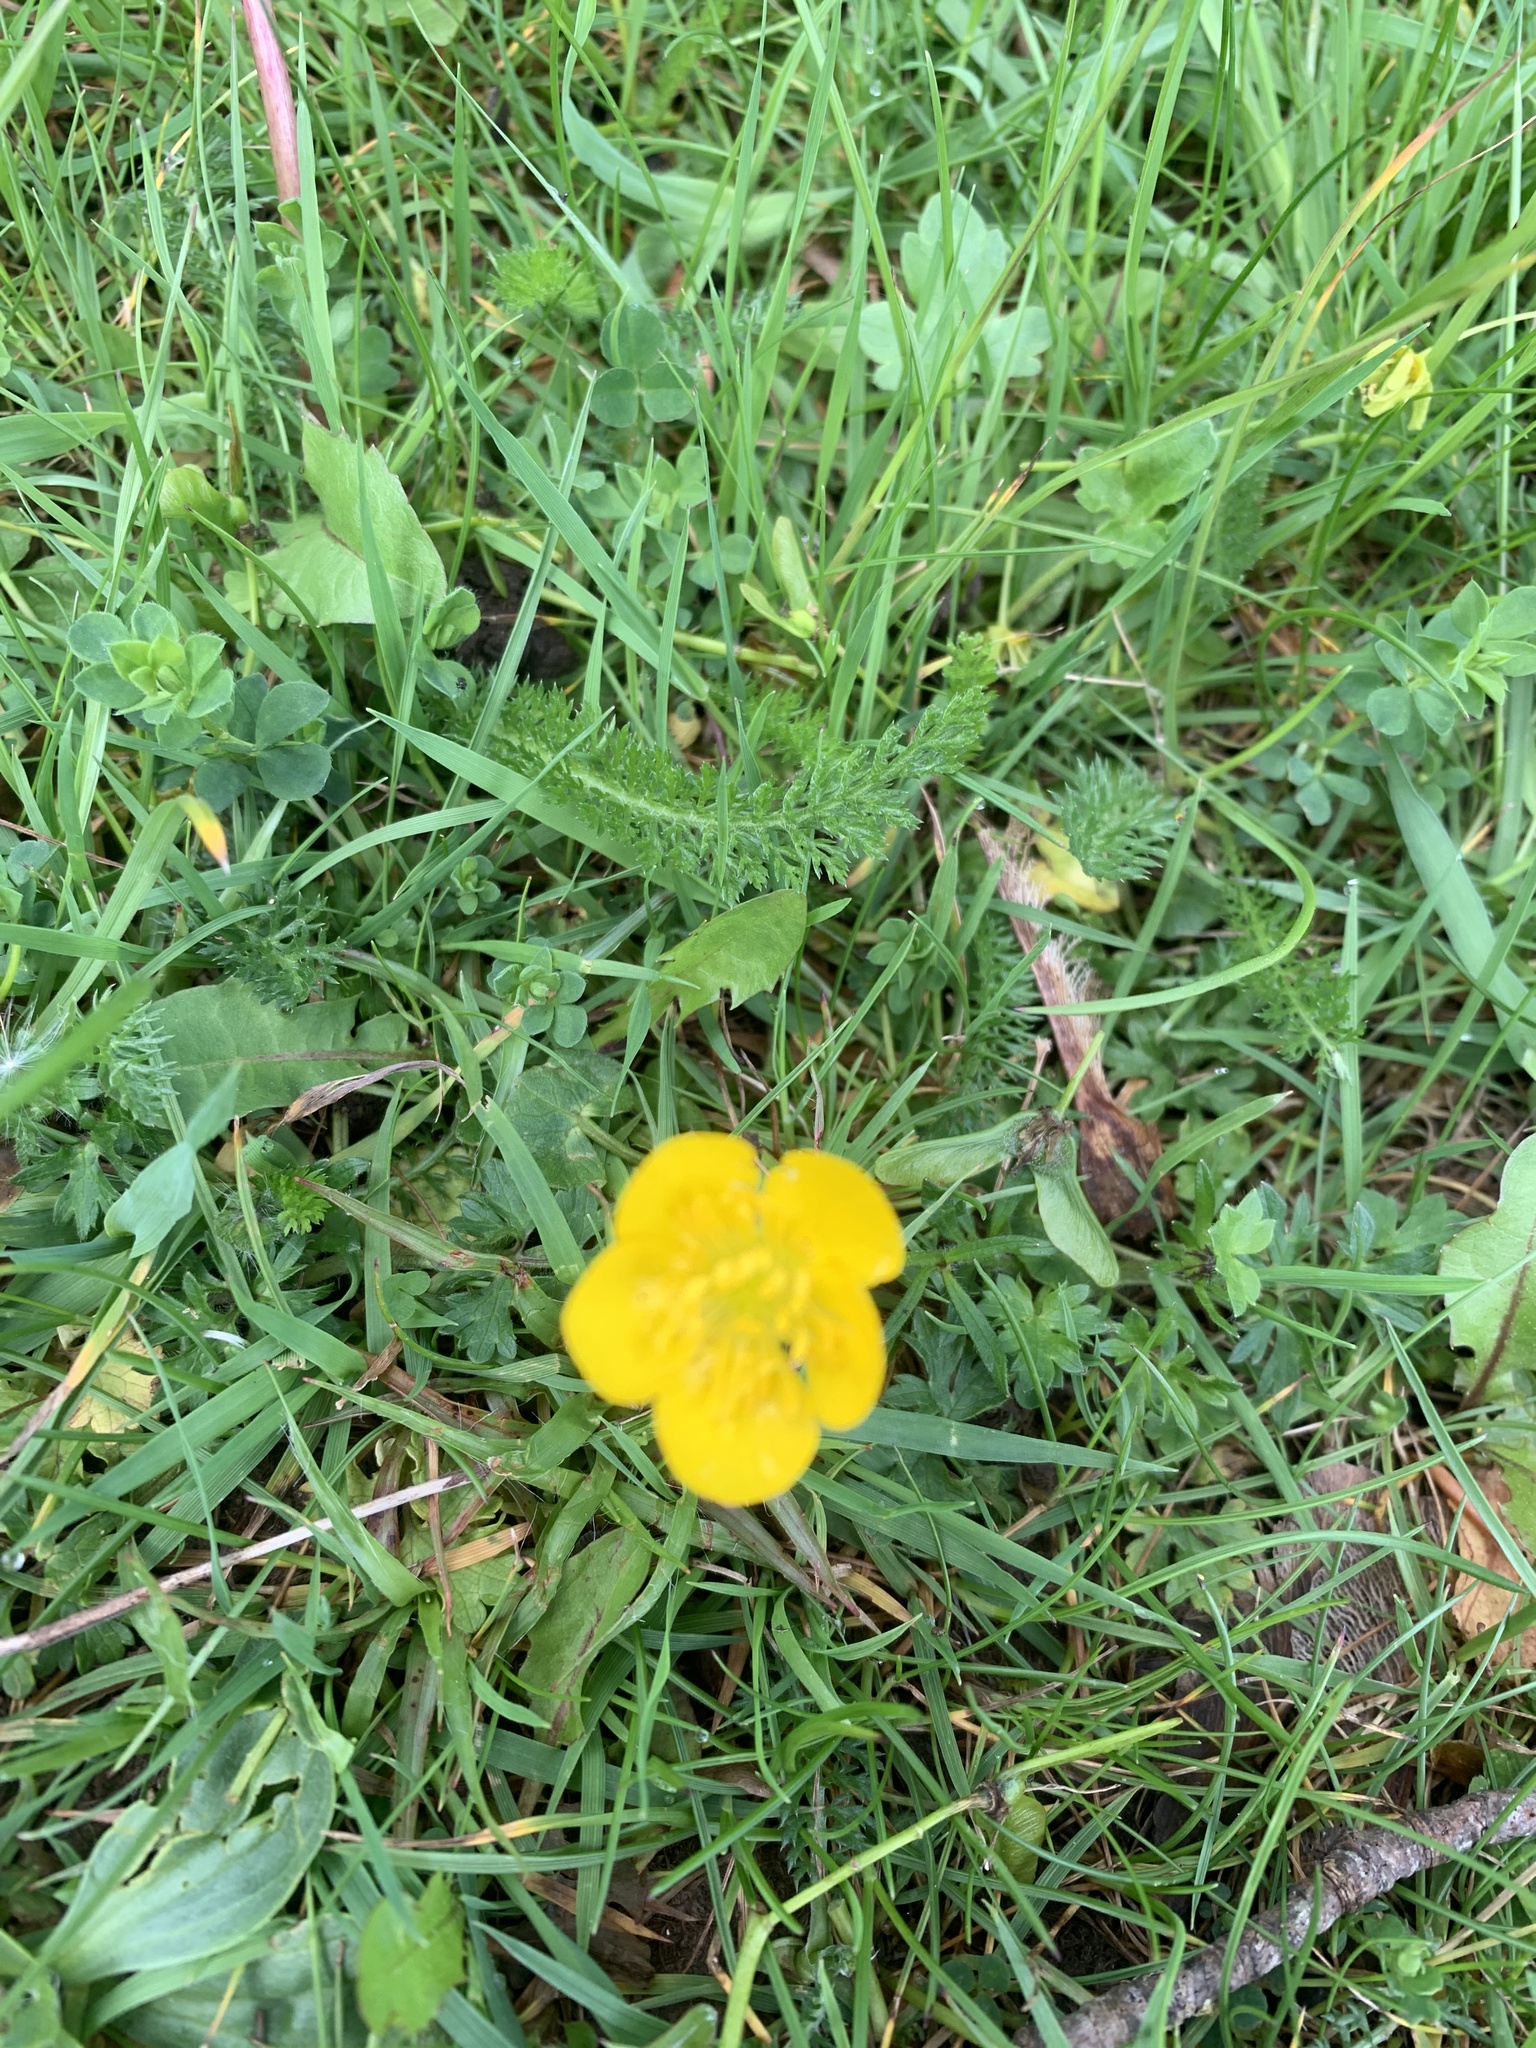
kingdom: Plantae
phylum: Tracheophyta
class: Magnoliopsida
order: Ranunculales
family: Ranunculaceae
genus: Ranunculus
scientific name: Ranunculus bulbosus
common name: Bulbous buttercup
